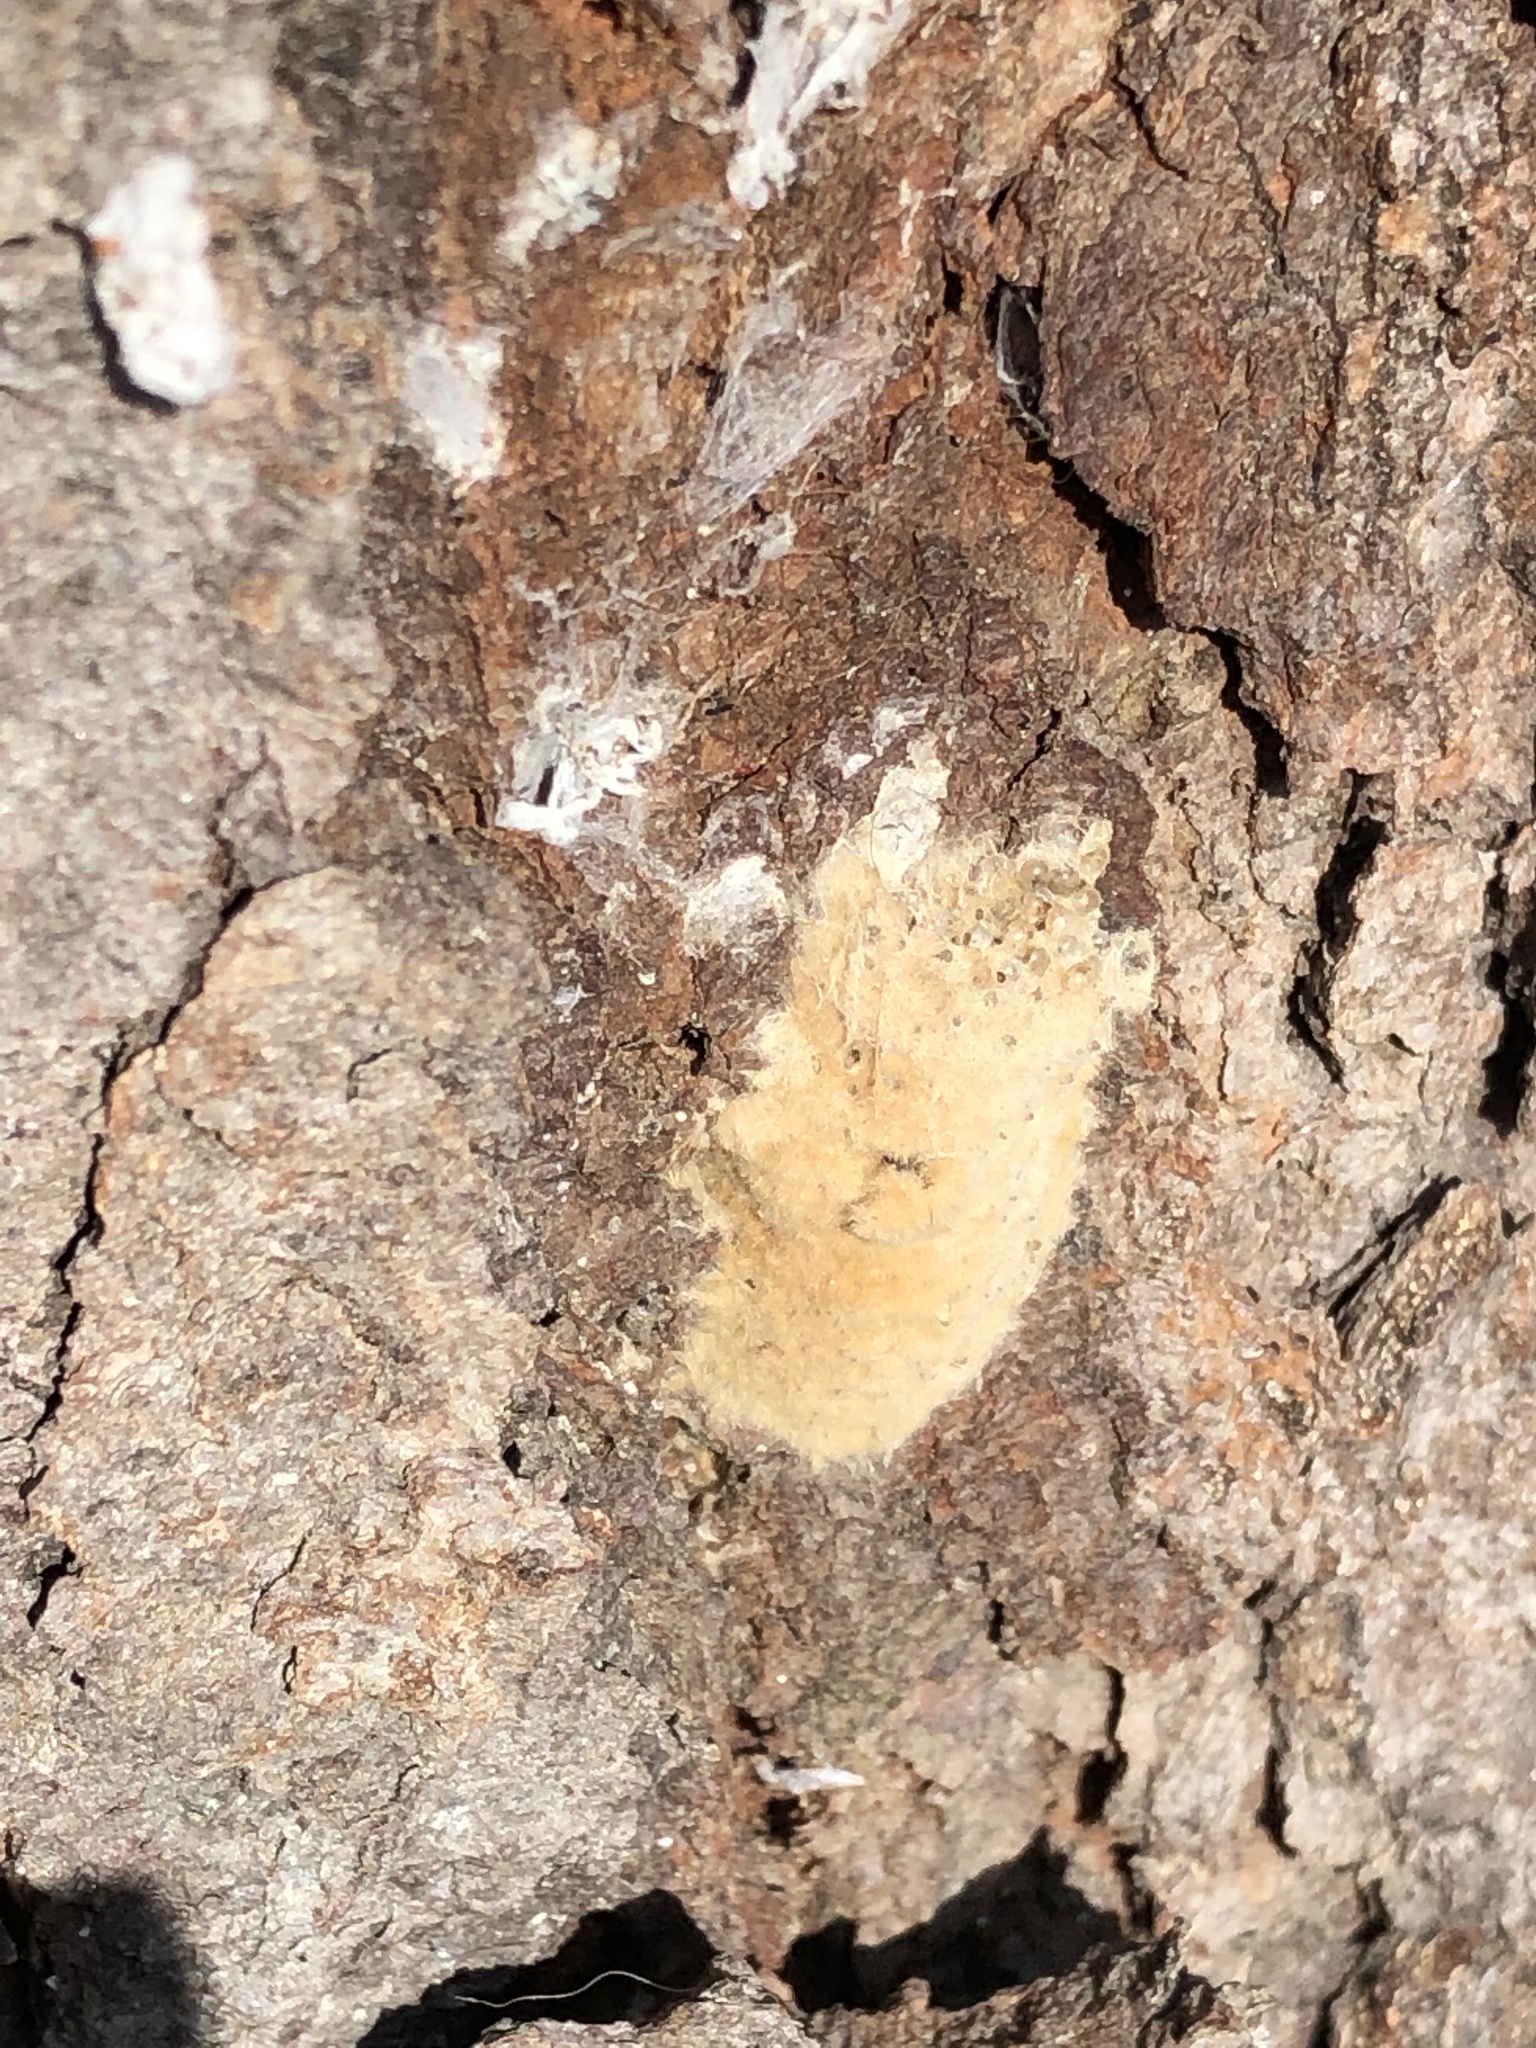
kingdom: Animalia
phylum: Arthropoda
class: Insecta
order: Lepidoptera
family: Erebidae
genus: Lymantria
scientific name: Lymantria dispar
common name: Gypsy moth
